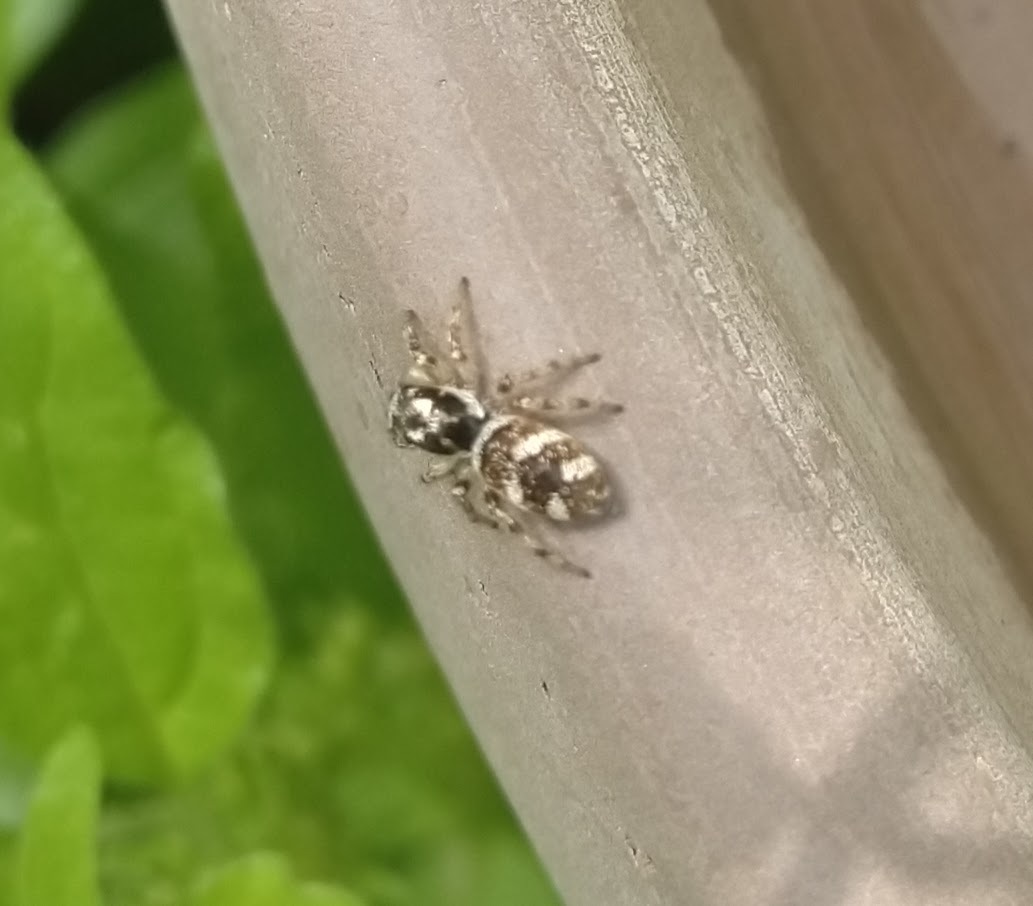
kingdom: Animalia
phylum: Arthropoda
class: Arachnida
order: Araneae
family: Salticidae
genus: Salticus
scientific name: Salticus scenicus
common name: Zebra jumper
